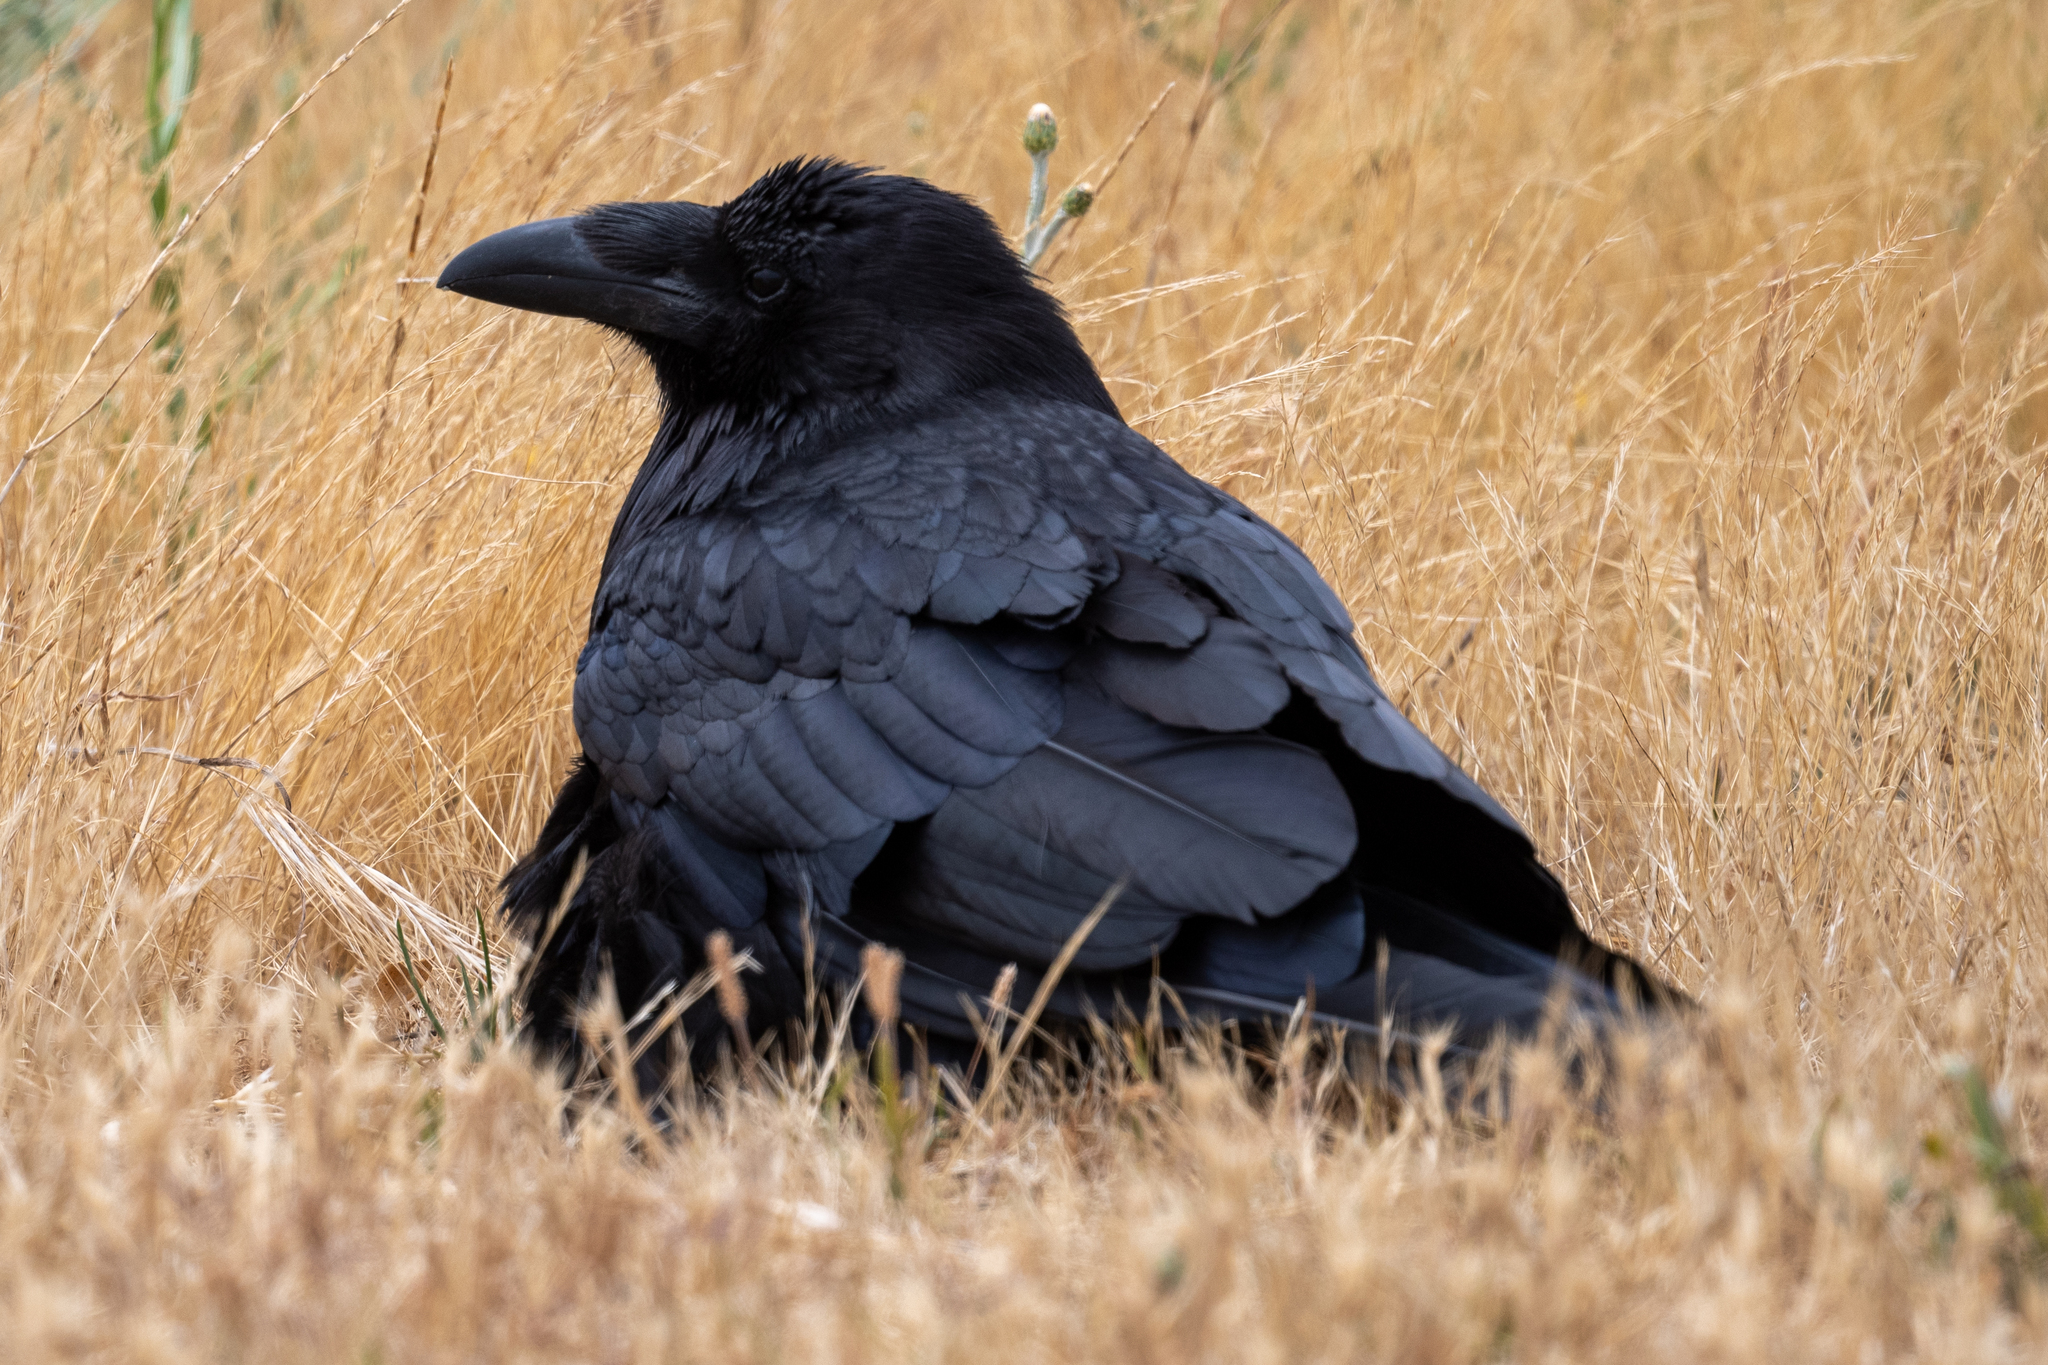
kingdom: Animalia
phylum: Chordata
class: Aves
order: Passeriformes
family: Corvidae
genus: Corvus
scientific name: Corvus corax
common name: Common raven
